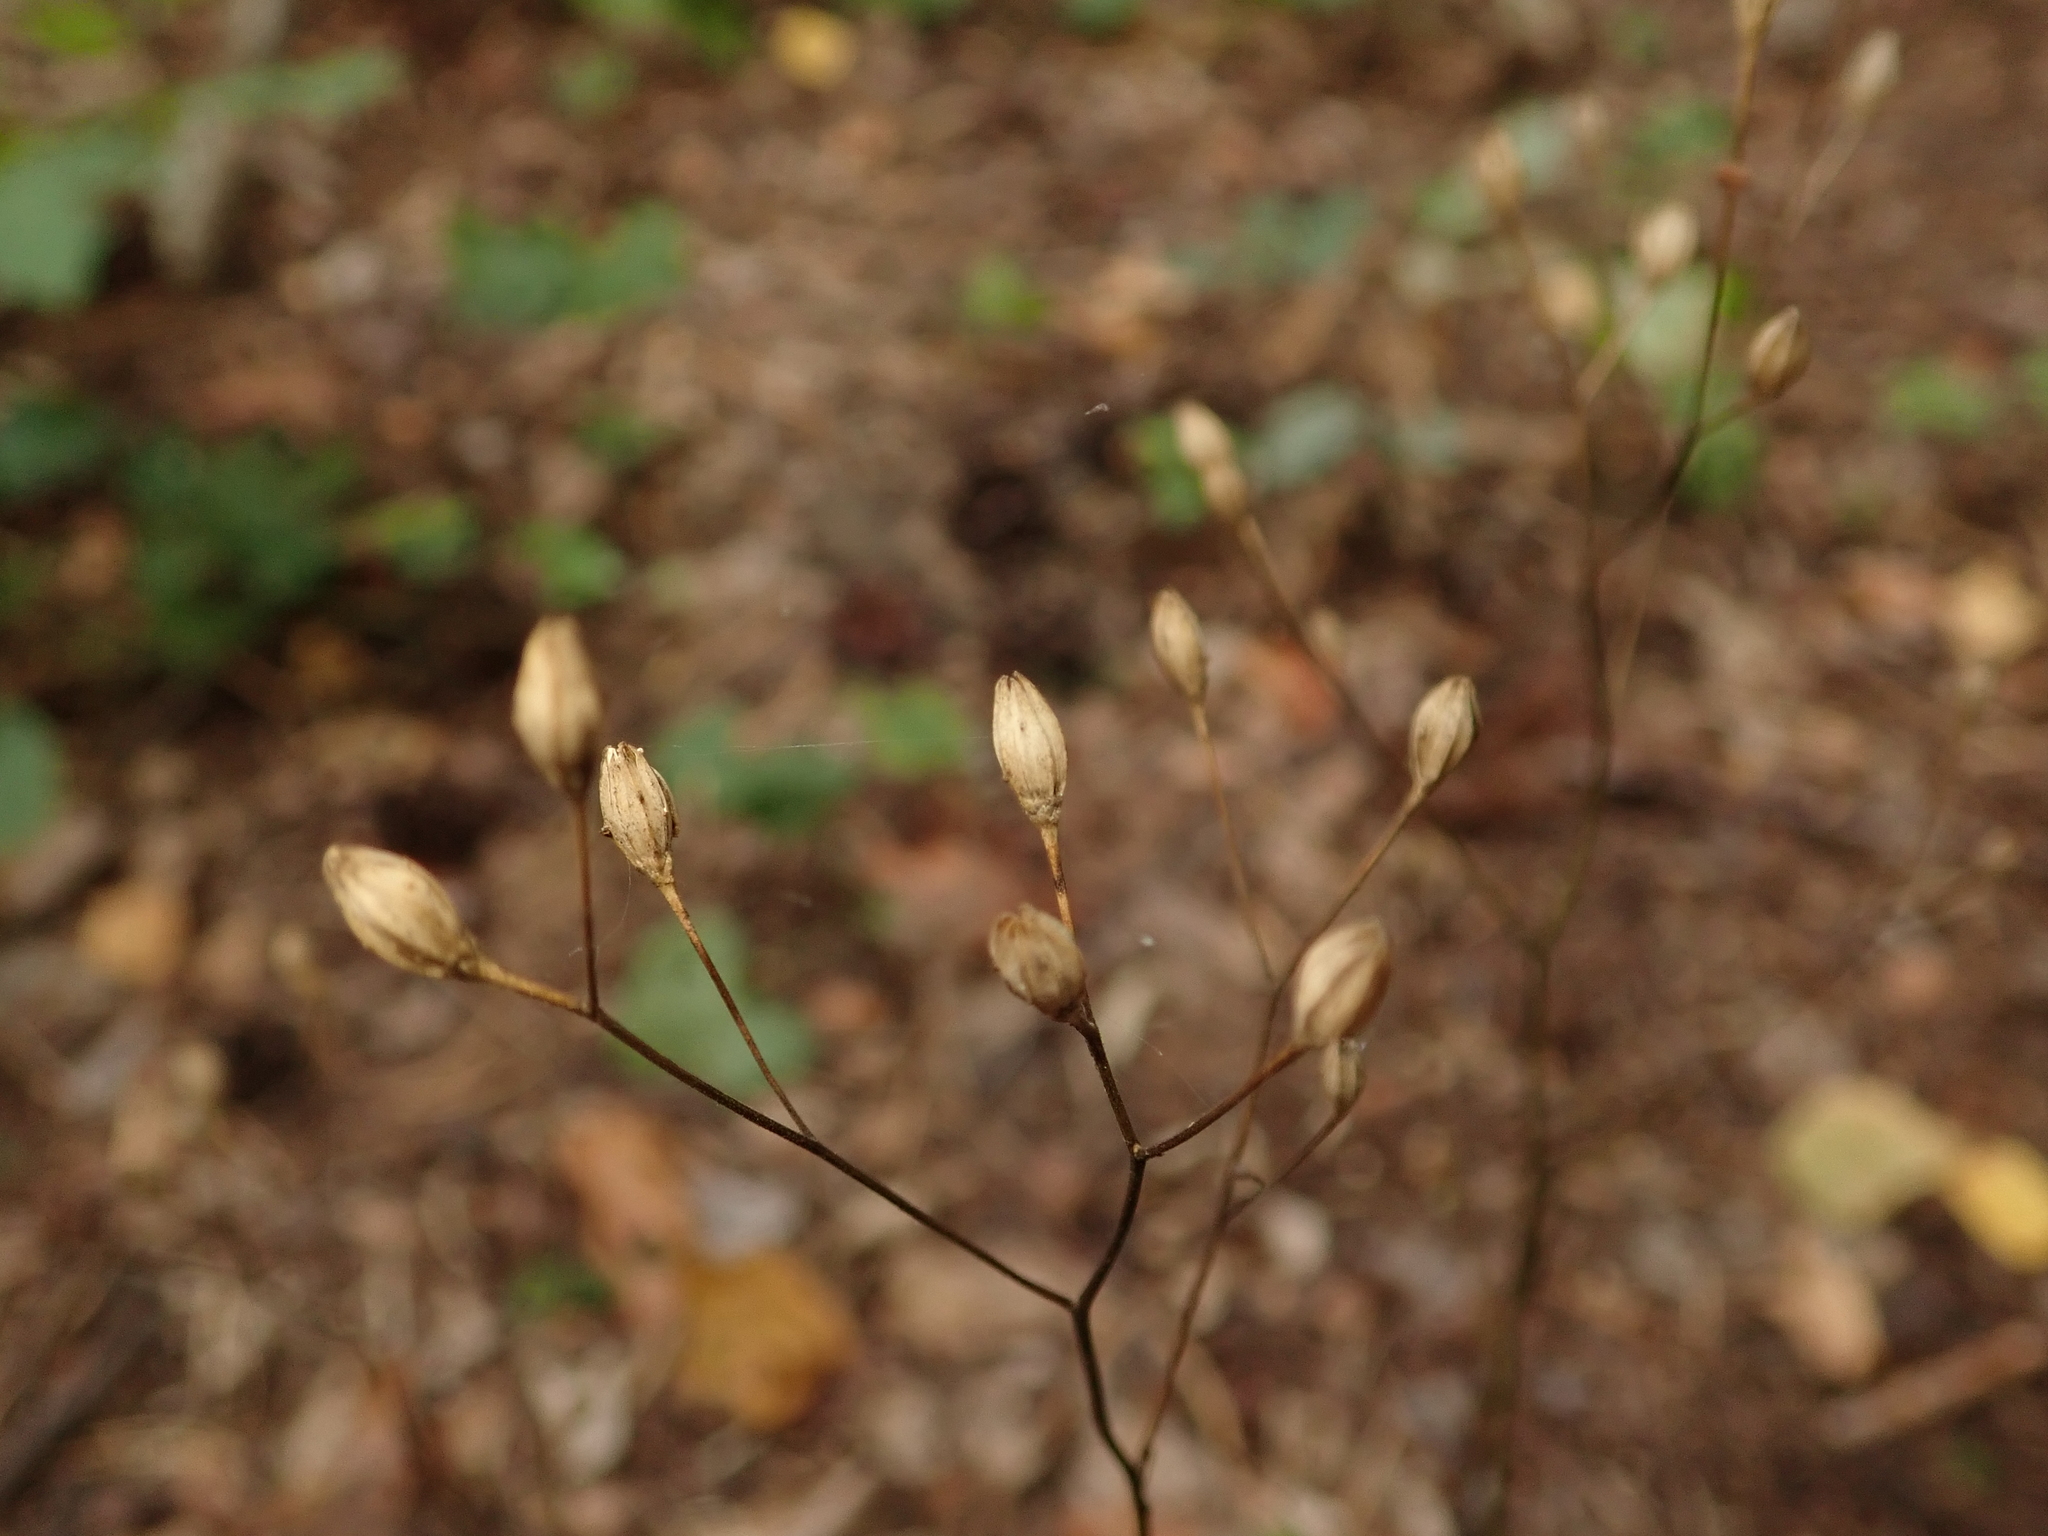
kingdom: Plantae
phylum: Tracheophyta
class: Magnoliopsida
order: Asterales
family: Asteraceae
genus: Lapsana
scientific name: Lapsana communis
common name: Nipplewort
